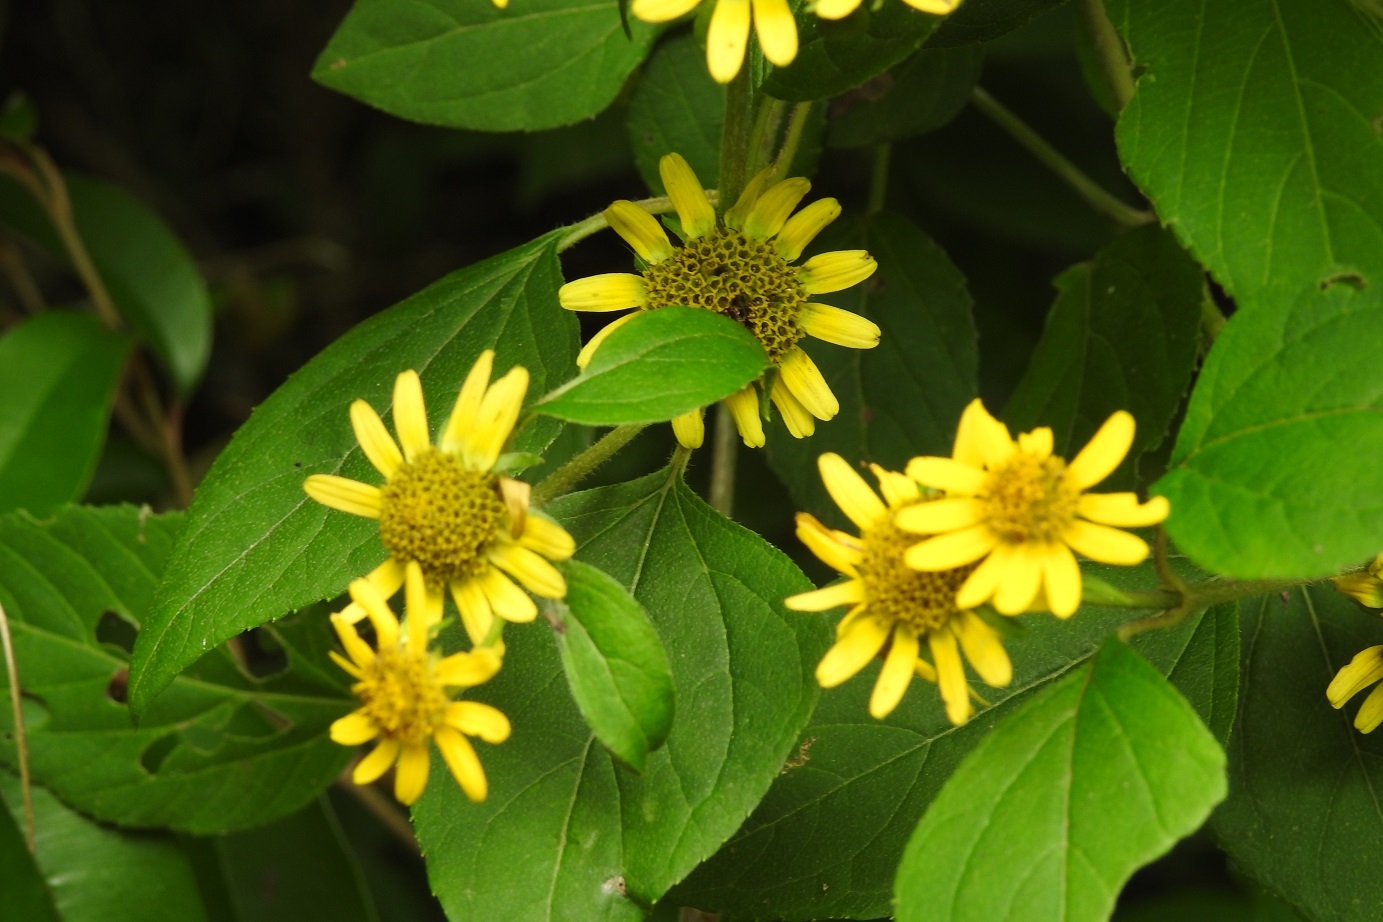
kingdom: Plantae
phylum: Tracheophyta
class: Magnoliopsida
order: Asterales
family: Asteraceae
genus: Philactis
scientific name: Philactis zinnioides
